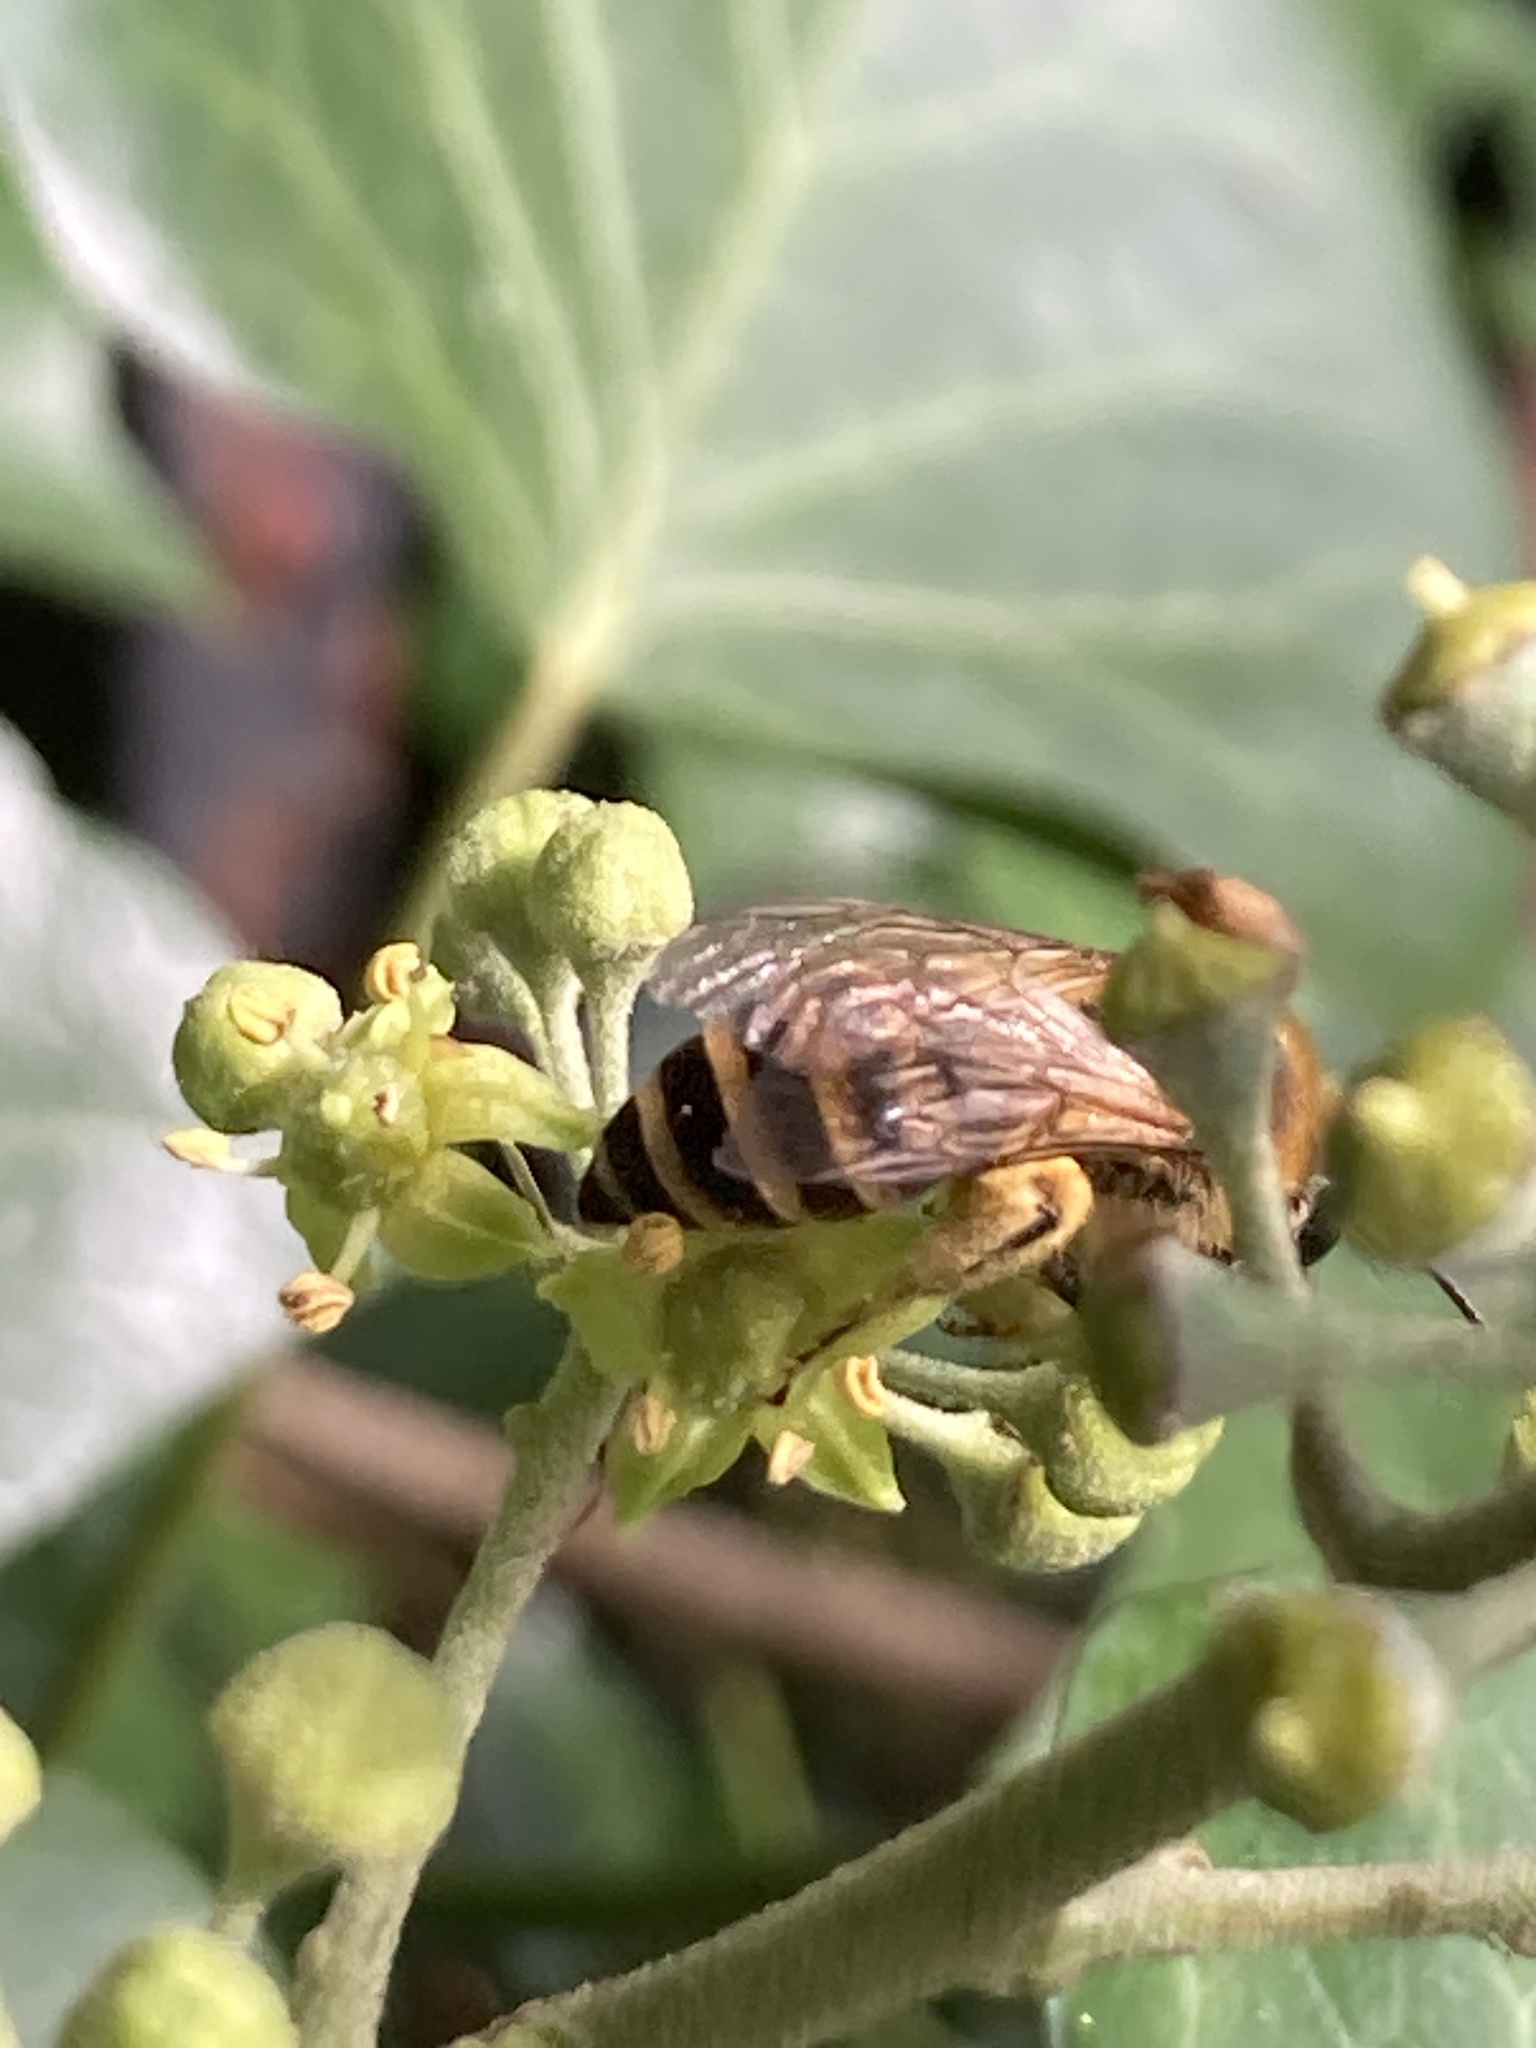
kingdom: Animalia
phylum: Arthropoda
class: Insecta
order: Hymenoptera
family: Colletidae
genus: Colletes
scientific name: Colletes hederae
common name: Ivy bee
